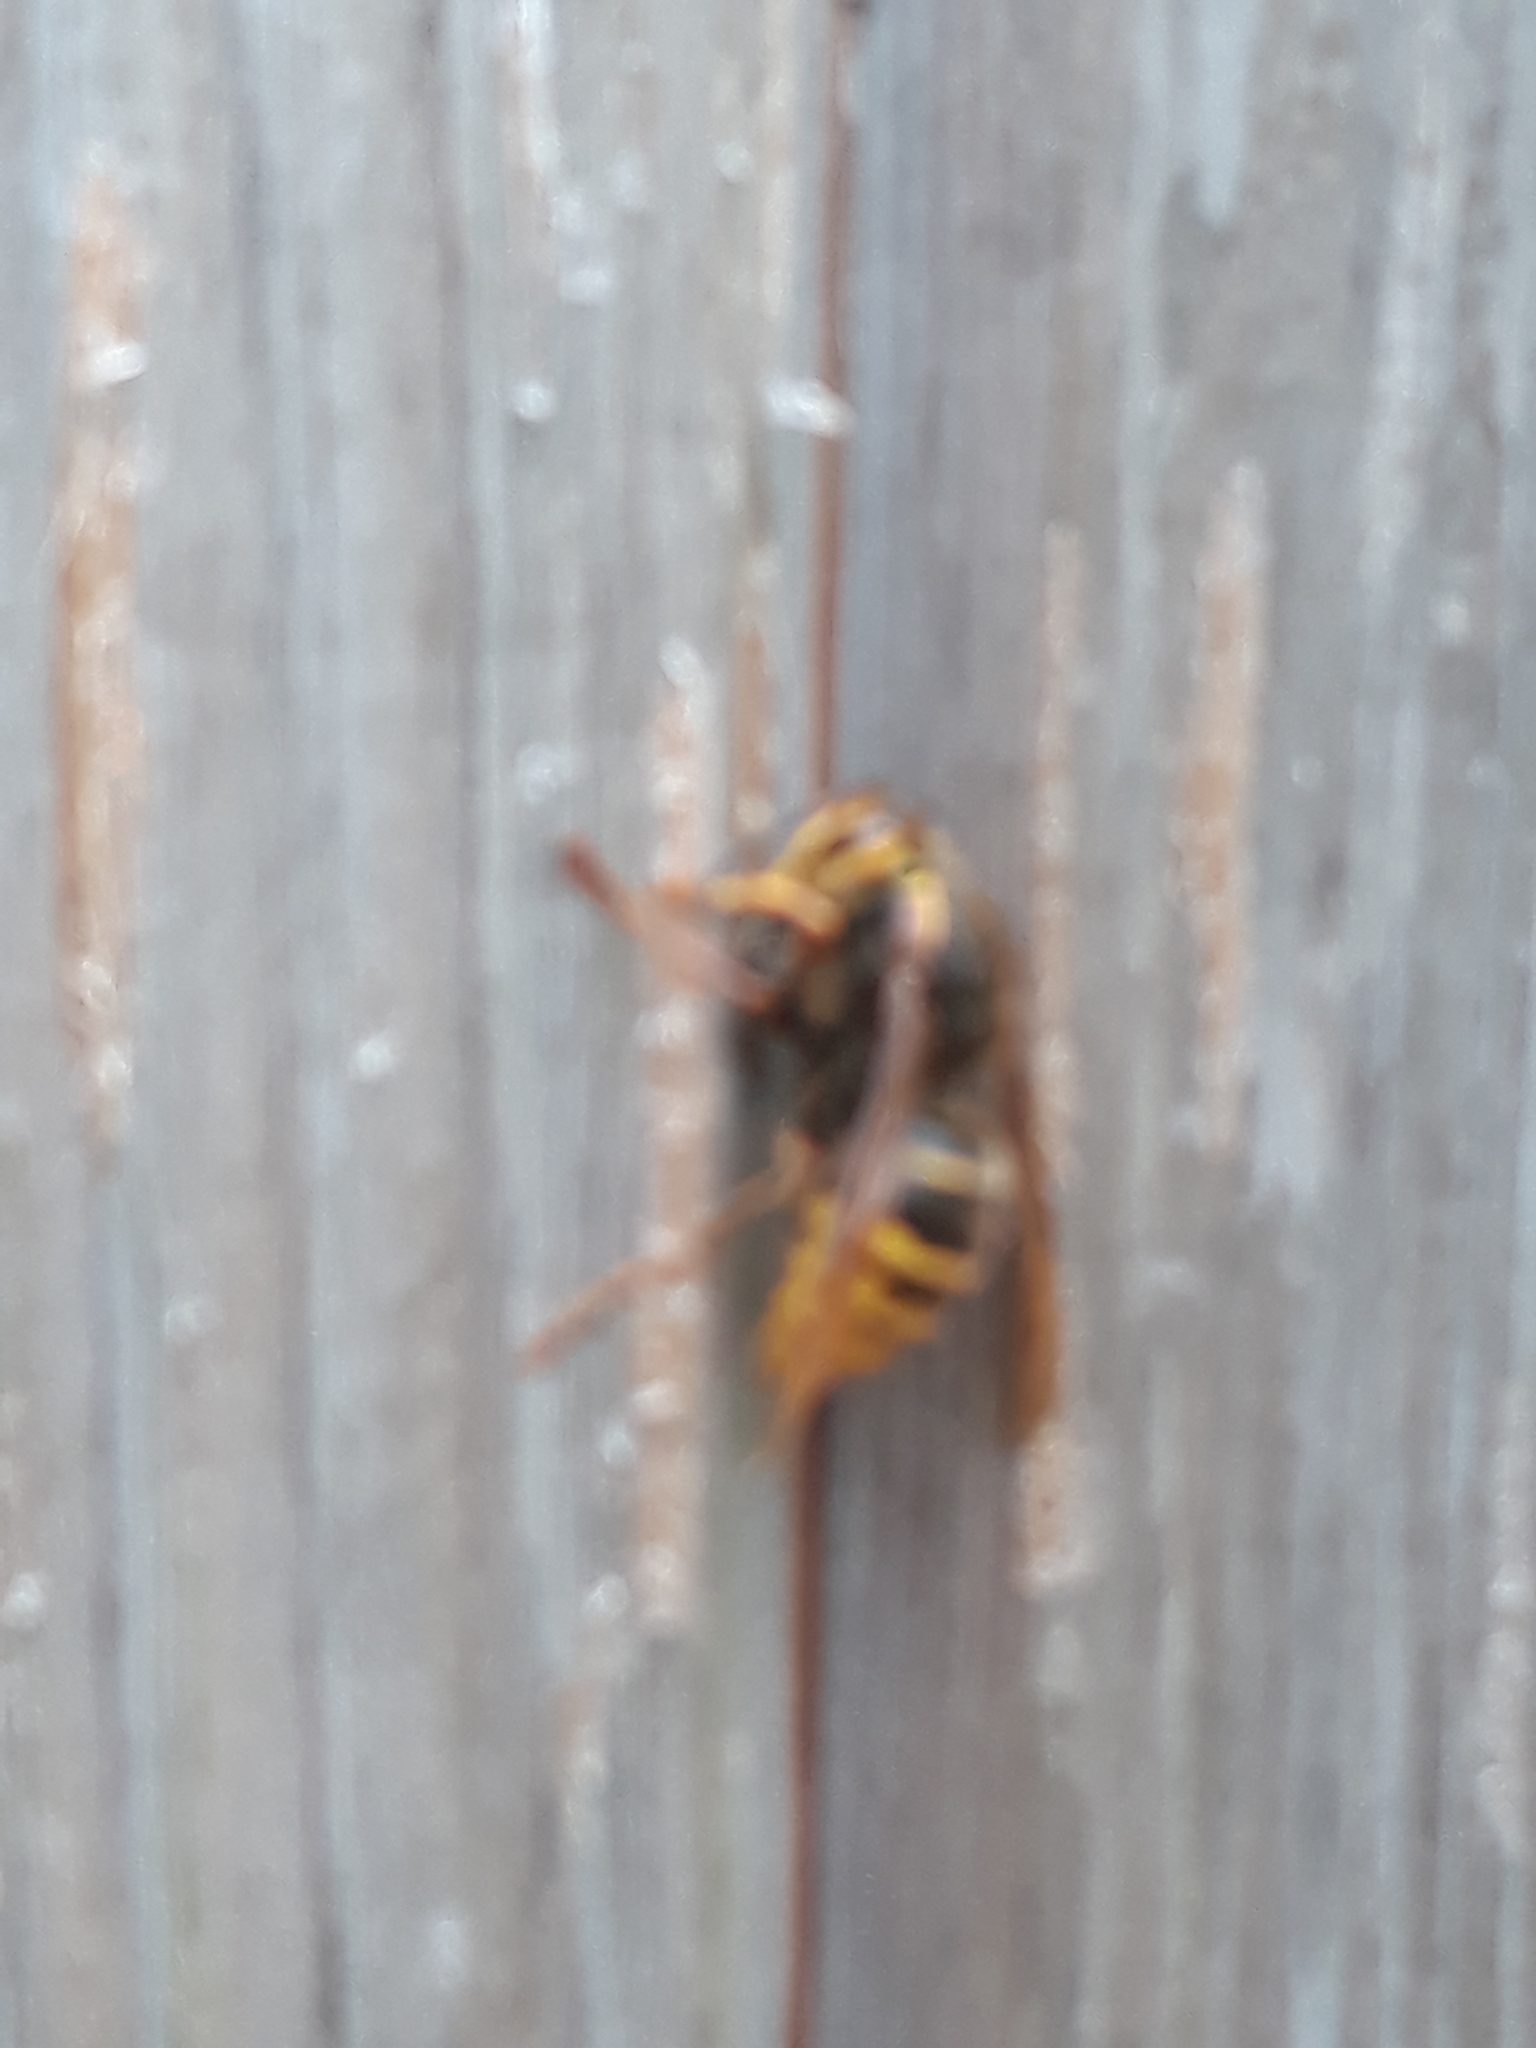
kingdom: Animalia
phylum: Arthropoda
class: Insecta
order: Hymenoptera
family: Vespidae
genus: Dolichovespula
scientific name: Dolichovespula media
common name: Median wasp
